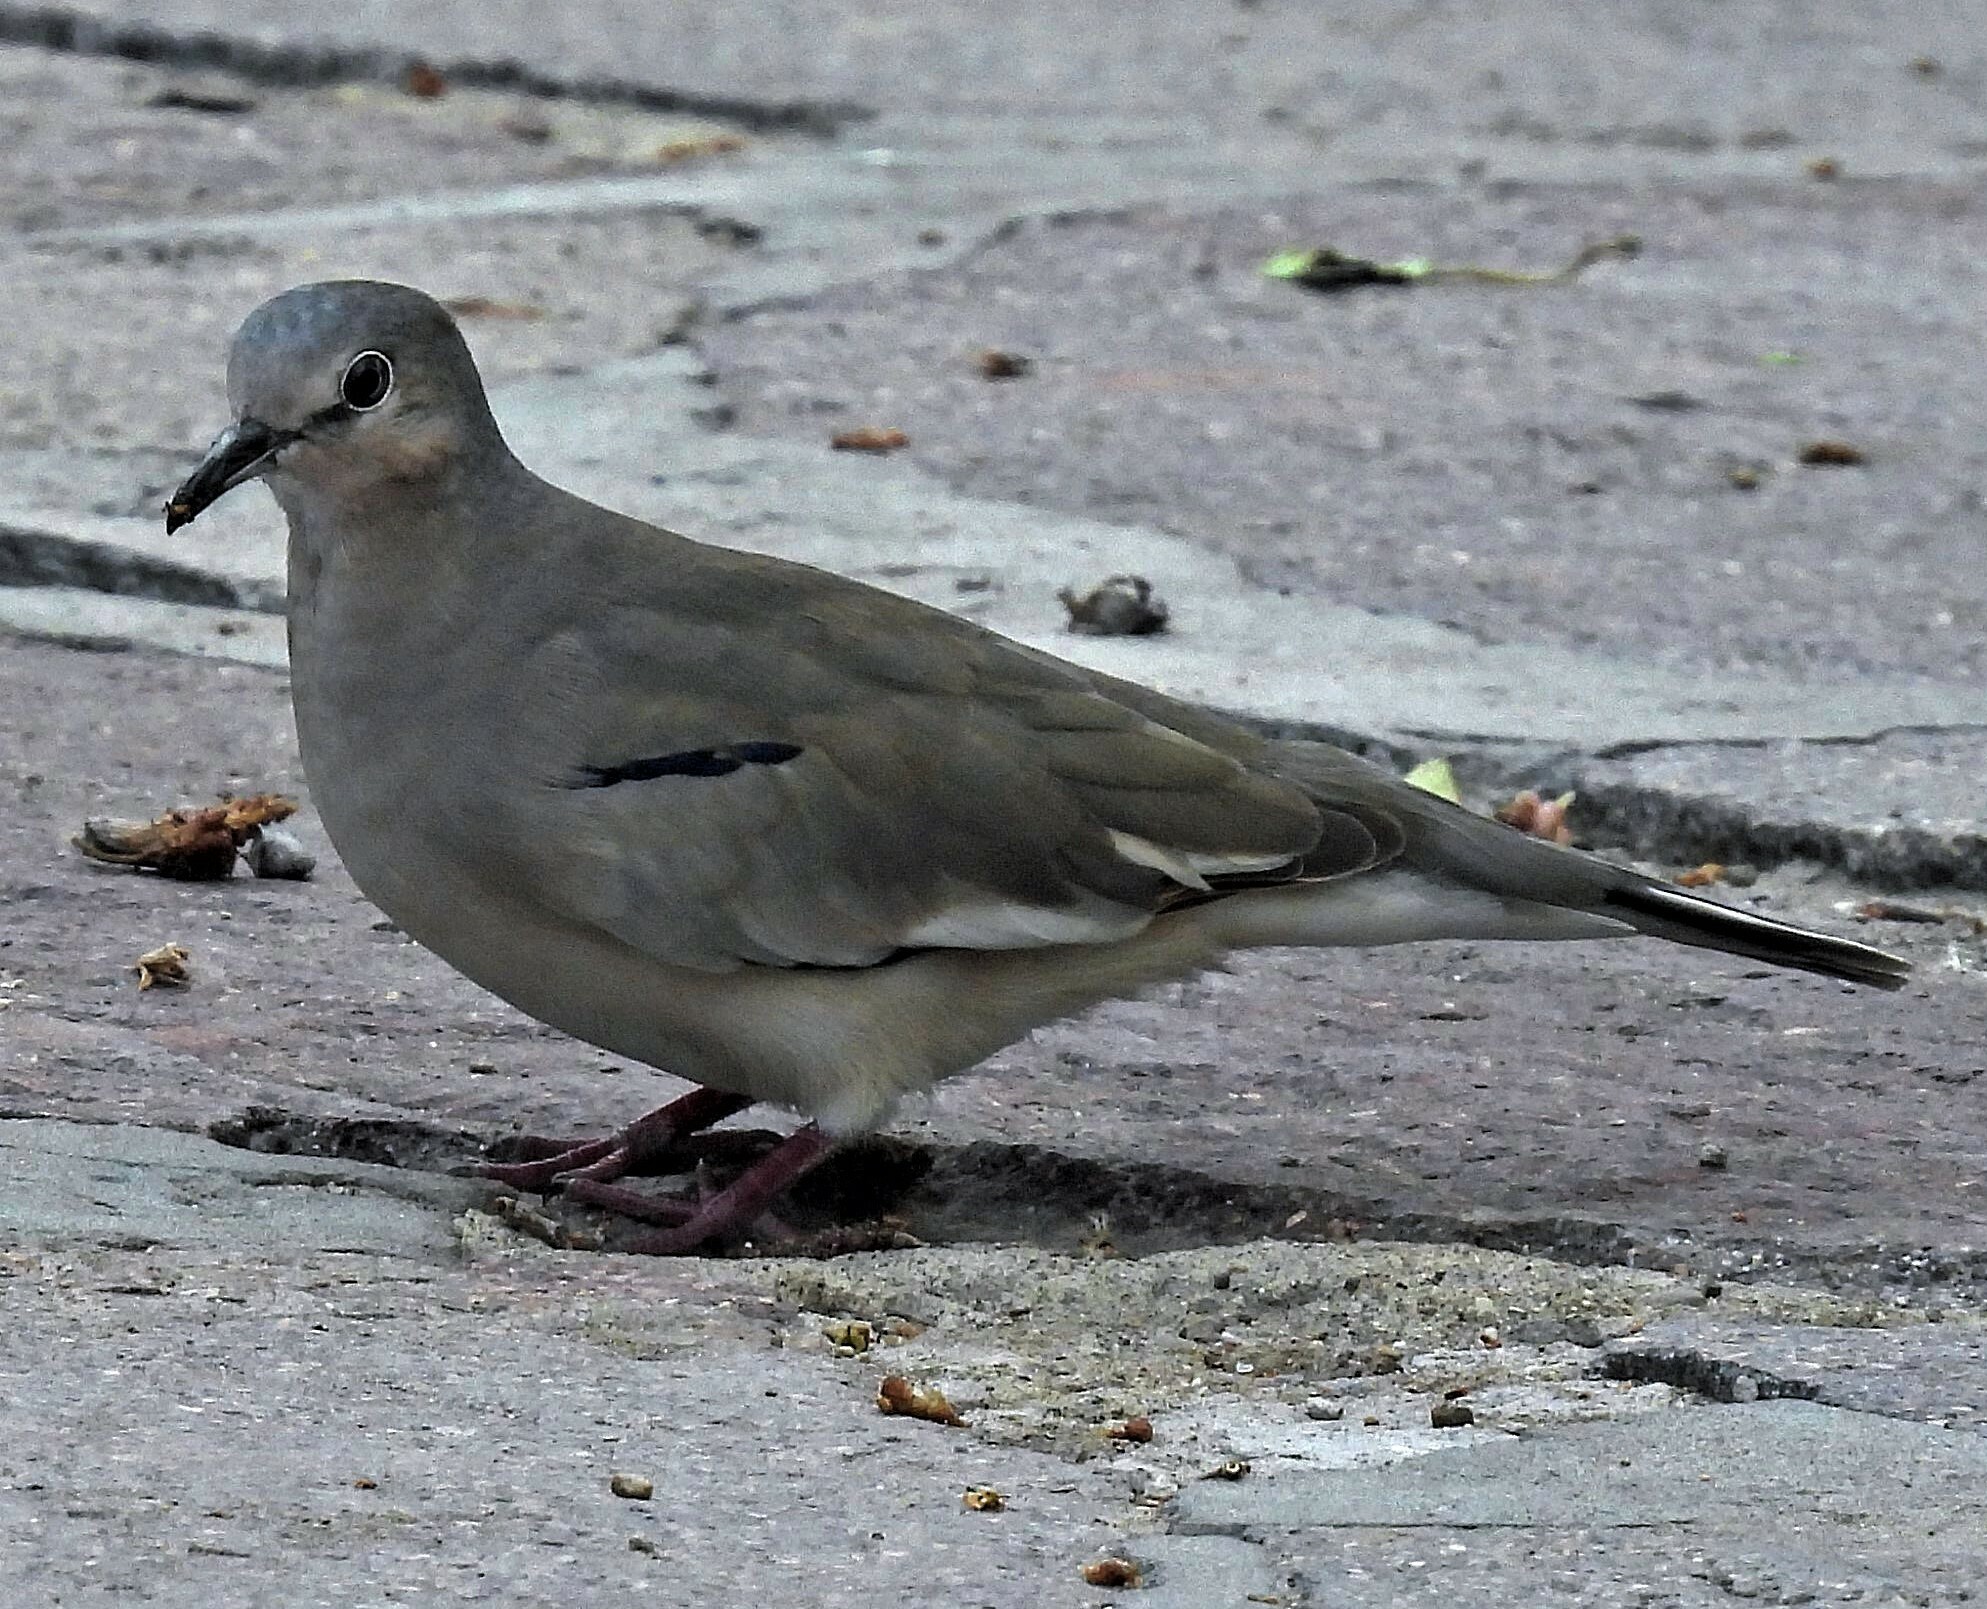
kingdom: Animalia
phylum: Chordata
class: Aves
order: Columbiformes
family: Columbidae
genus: Columbina
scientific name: Columbina picui
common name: Picui ground dove
